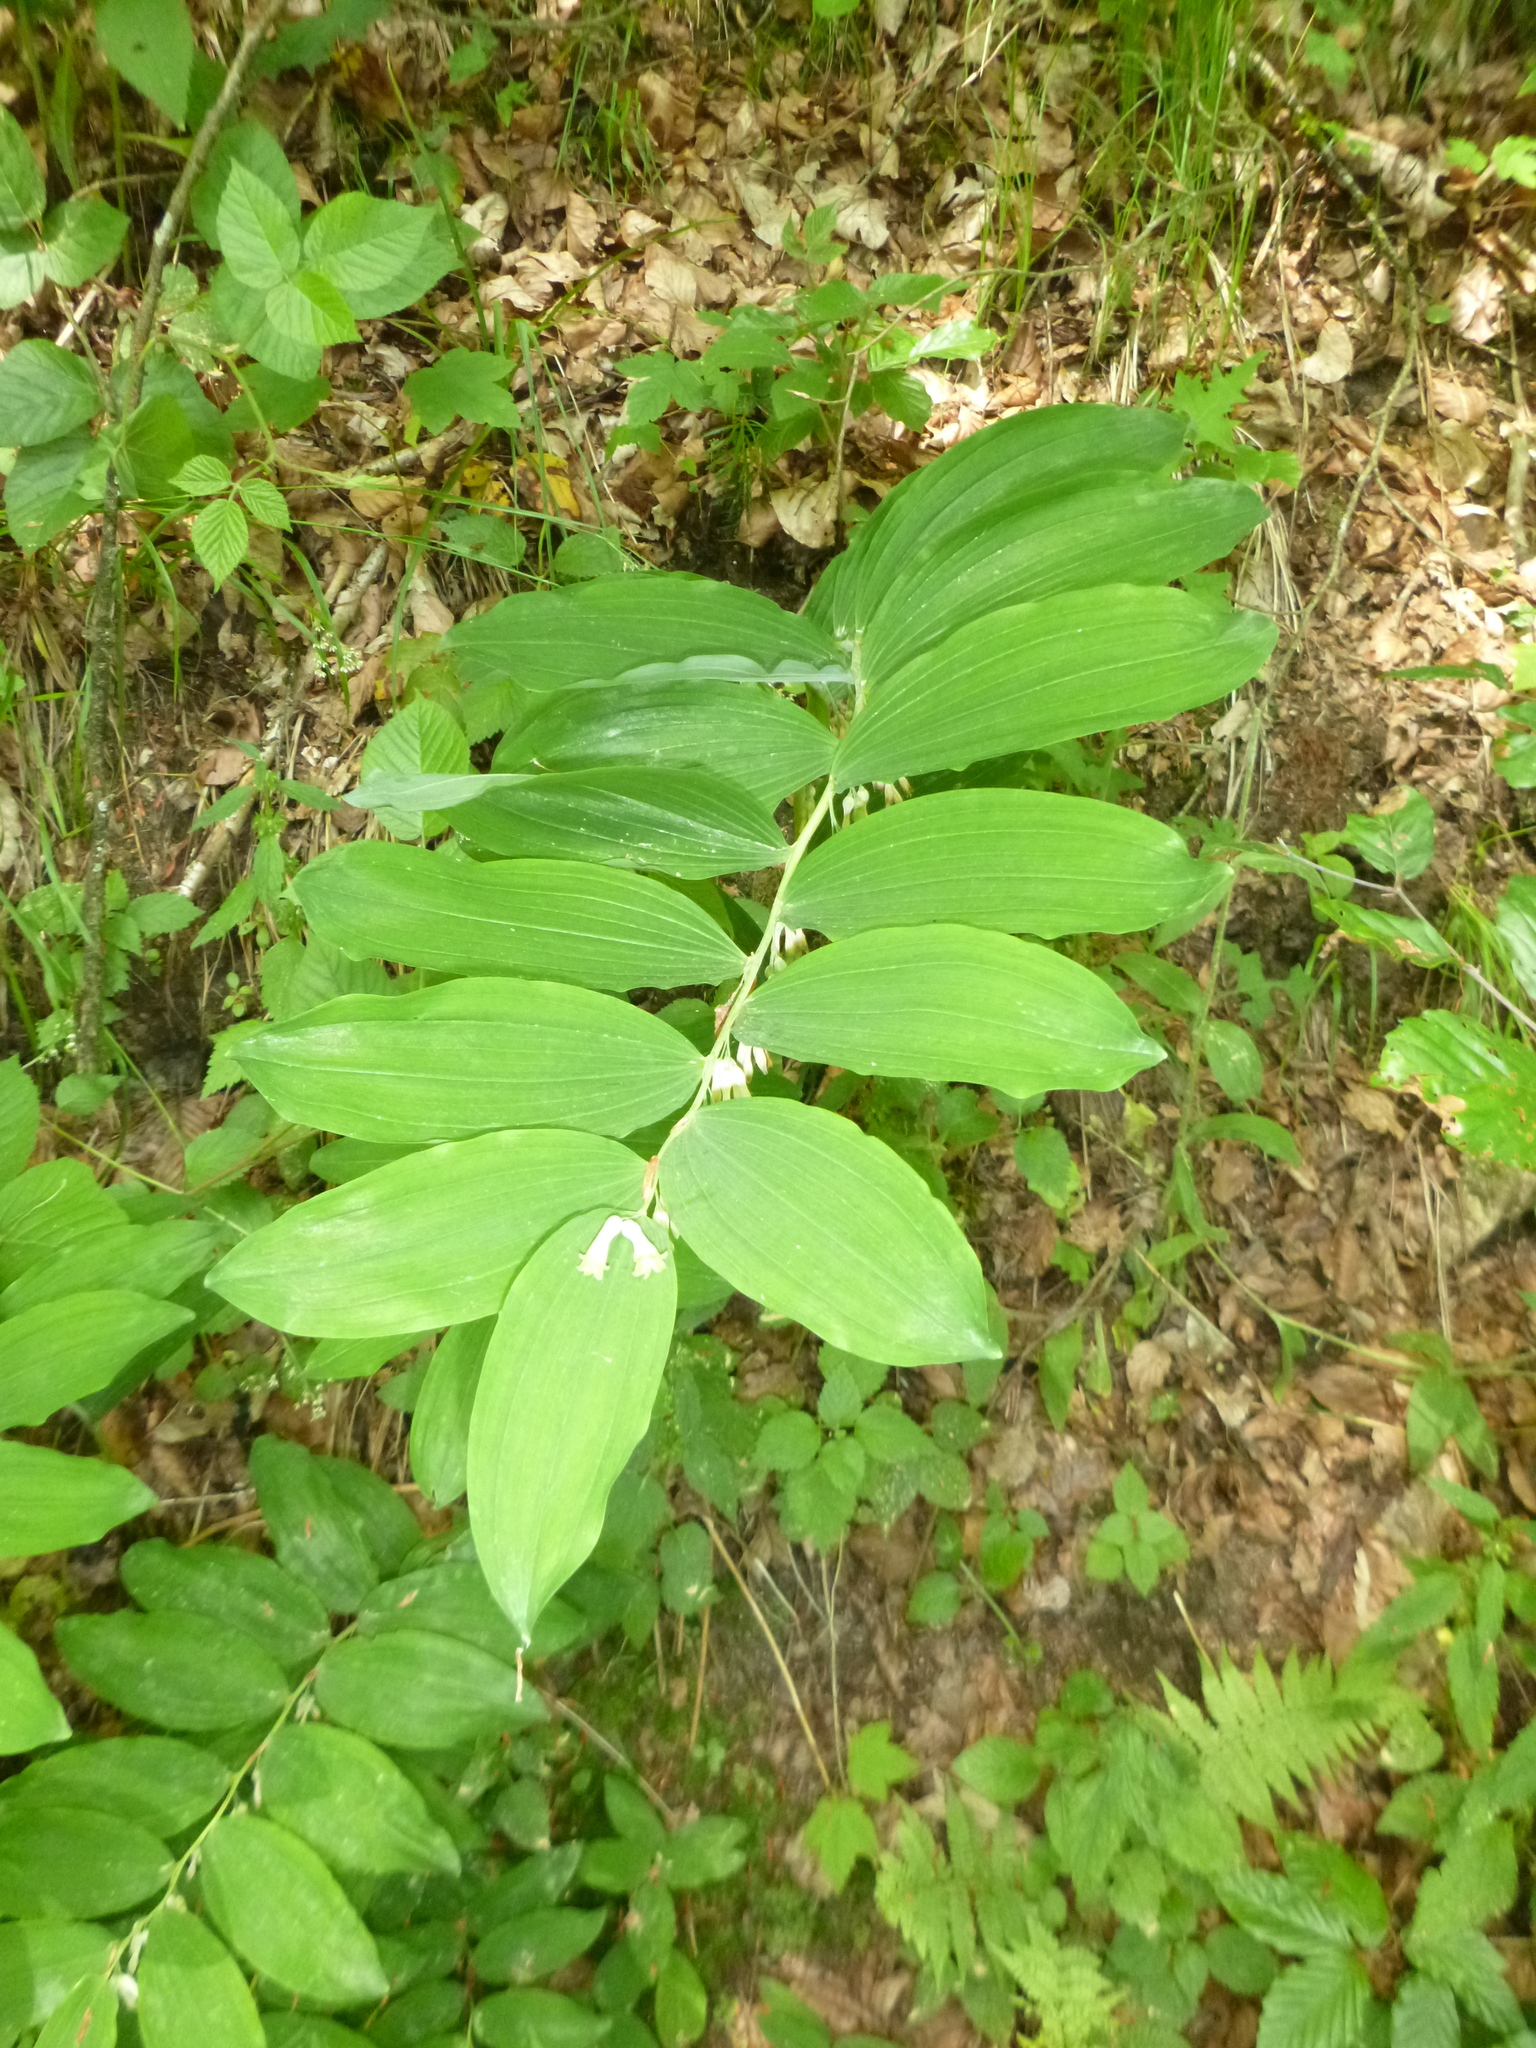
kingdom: Plantae
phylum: Tracheophyta
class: Liliopsida
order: Asparagales
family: Asparagaceae
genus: Polygonatum
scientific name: Polygonatum multiflorum
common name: Solomon's-seal
